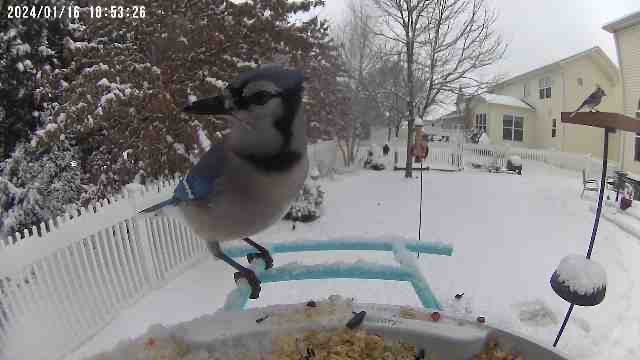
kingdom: Animalia
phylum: Chordata
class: Aves
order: Passeriformes
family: Corvidae
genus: Cyanocitta
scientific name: Cyanocitta cristata
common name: Blue jay
